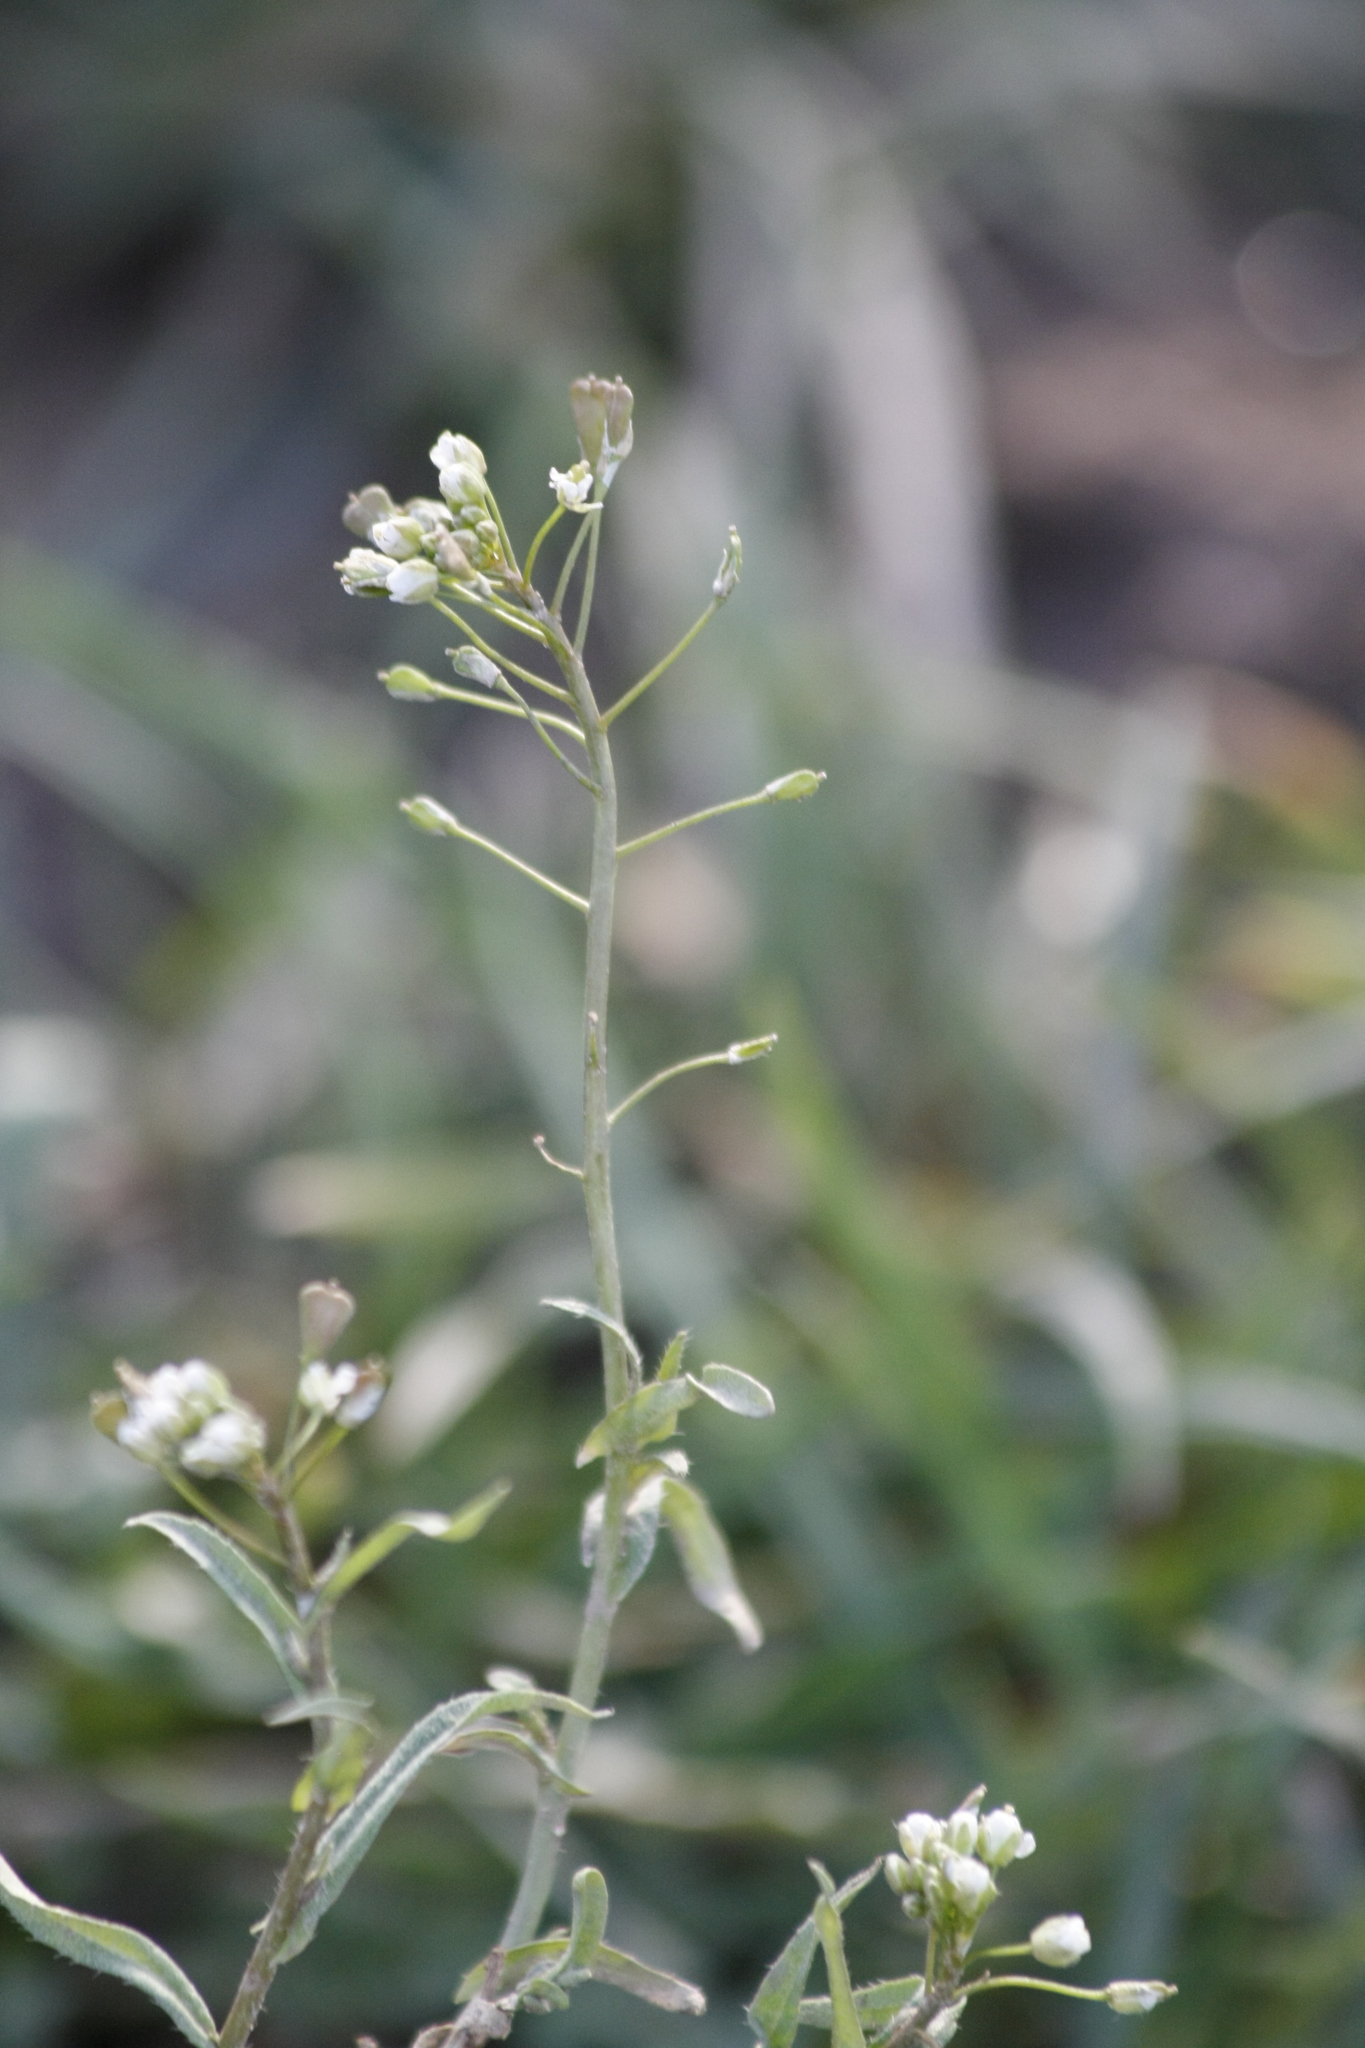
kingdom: Plantae
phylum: Tracheophyta
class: Magnoliopsida
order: Brassicales
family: Brassicaceae
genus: Capsella
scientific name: Capsella bursa-pastoris
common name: Shepherd's purse
